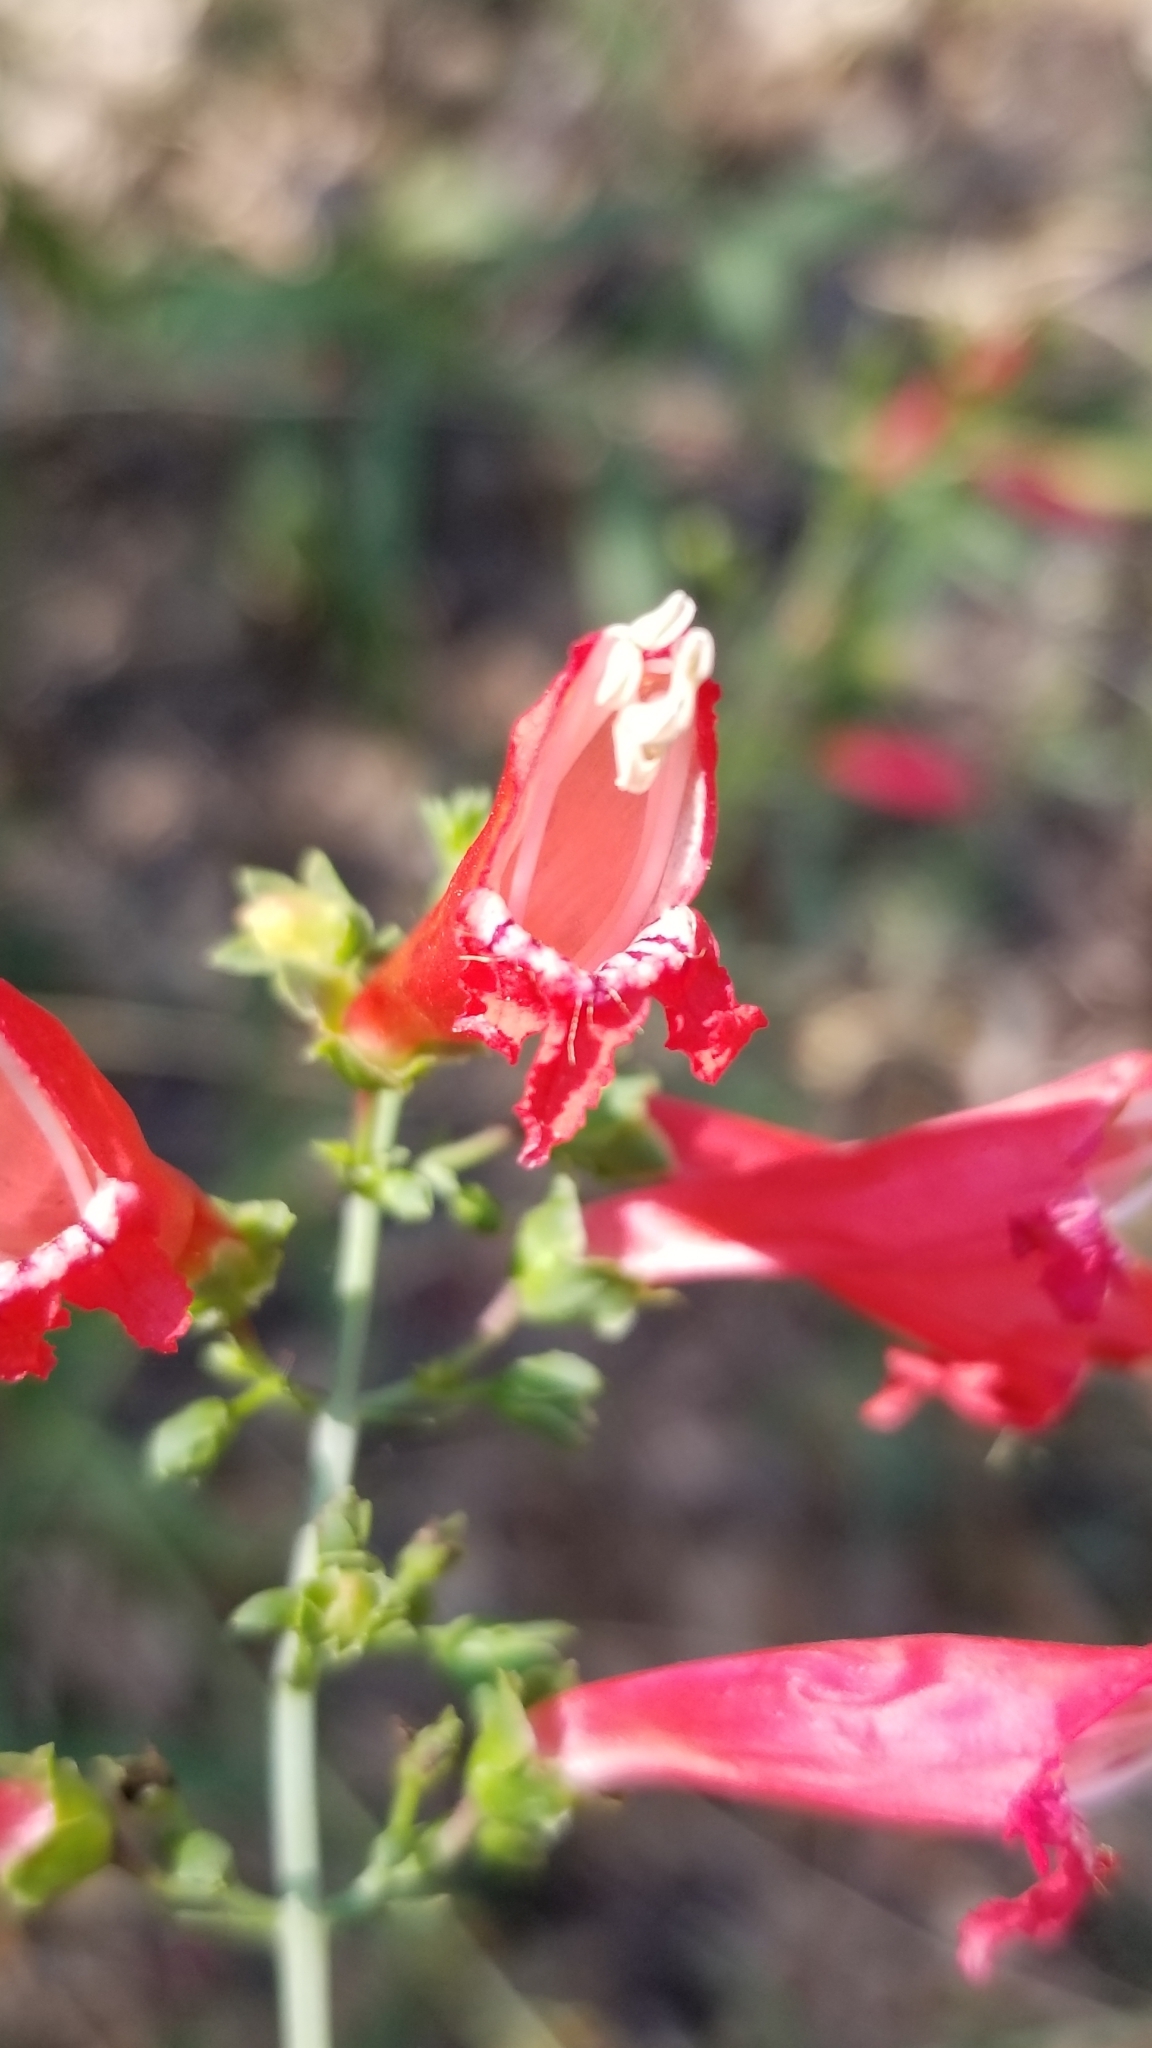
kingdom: Plantae
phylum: Tracheophyta
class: Magnoliopsida
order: Lamiales
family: Plantaginaceae
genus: Penstemon
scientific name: Penstemon barbatus
